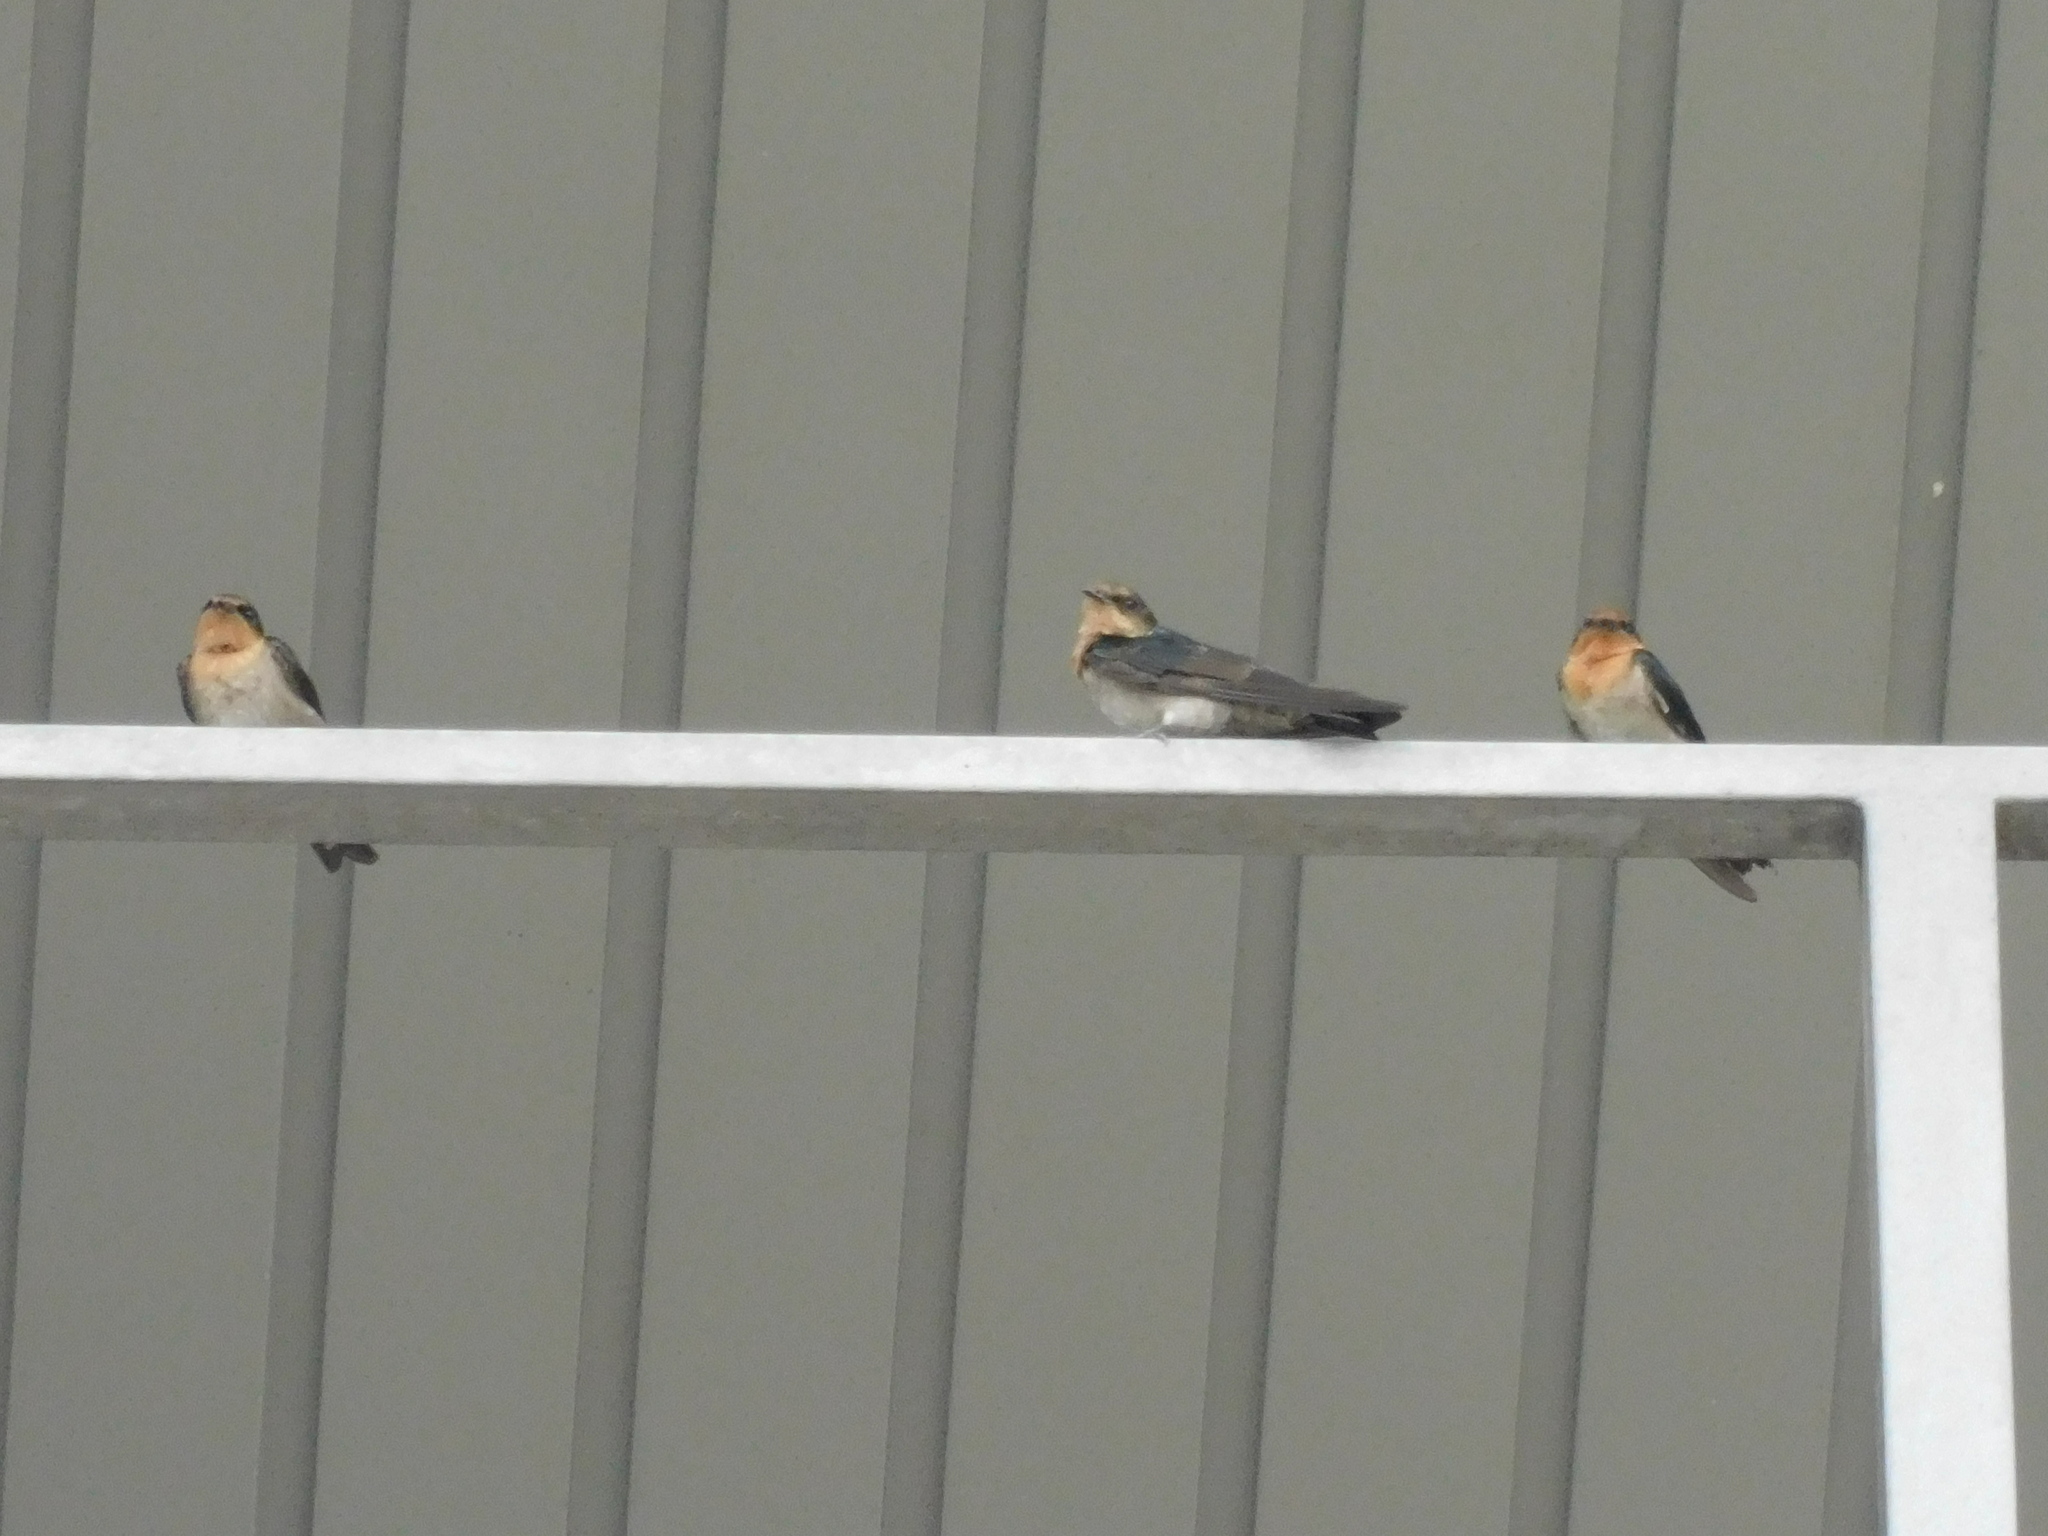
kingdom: Animalia
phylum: Chordata
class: Aves
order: Passeriformes
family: Hirundinidae
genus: Hirundo
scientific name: Hirundo tahitica
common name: Pacific swallow
